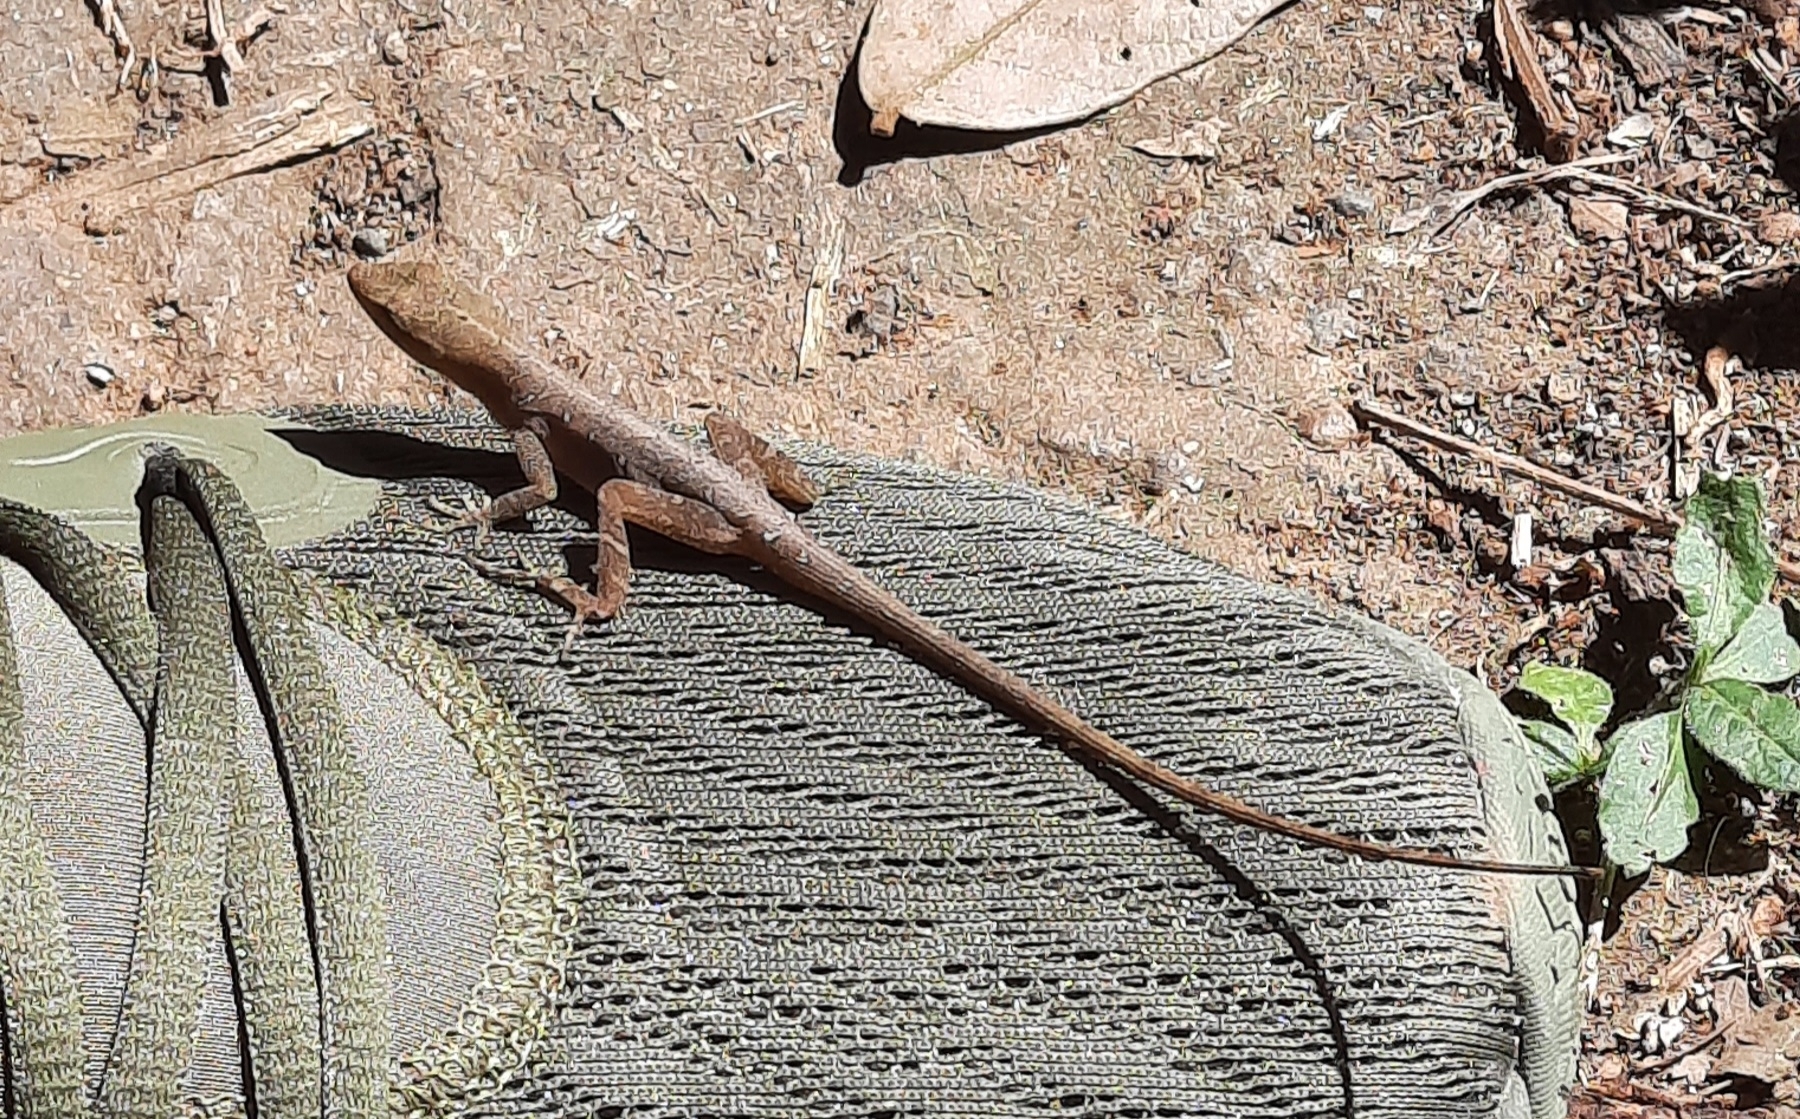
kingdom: Animalia
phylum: Chordata
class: Squamata
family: Dactyloidae
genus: Anolis
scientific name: Anolis cupreus
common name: Copper anole
